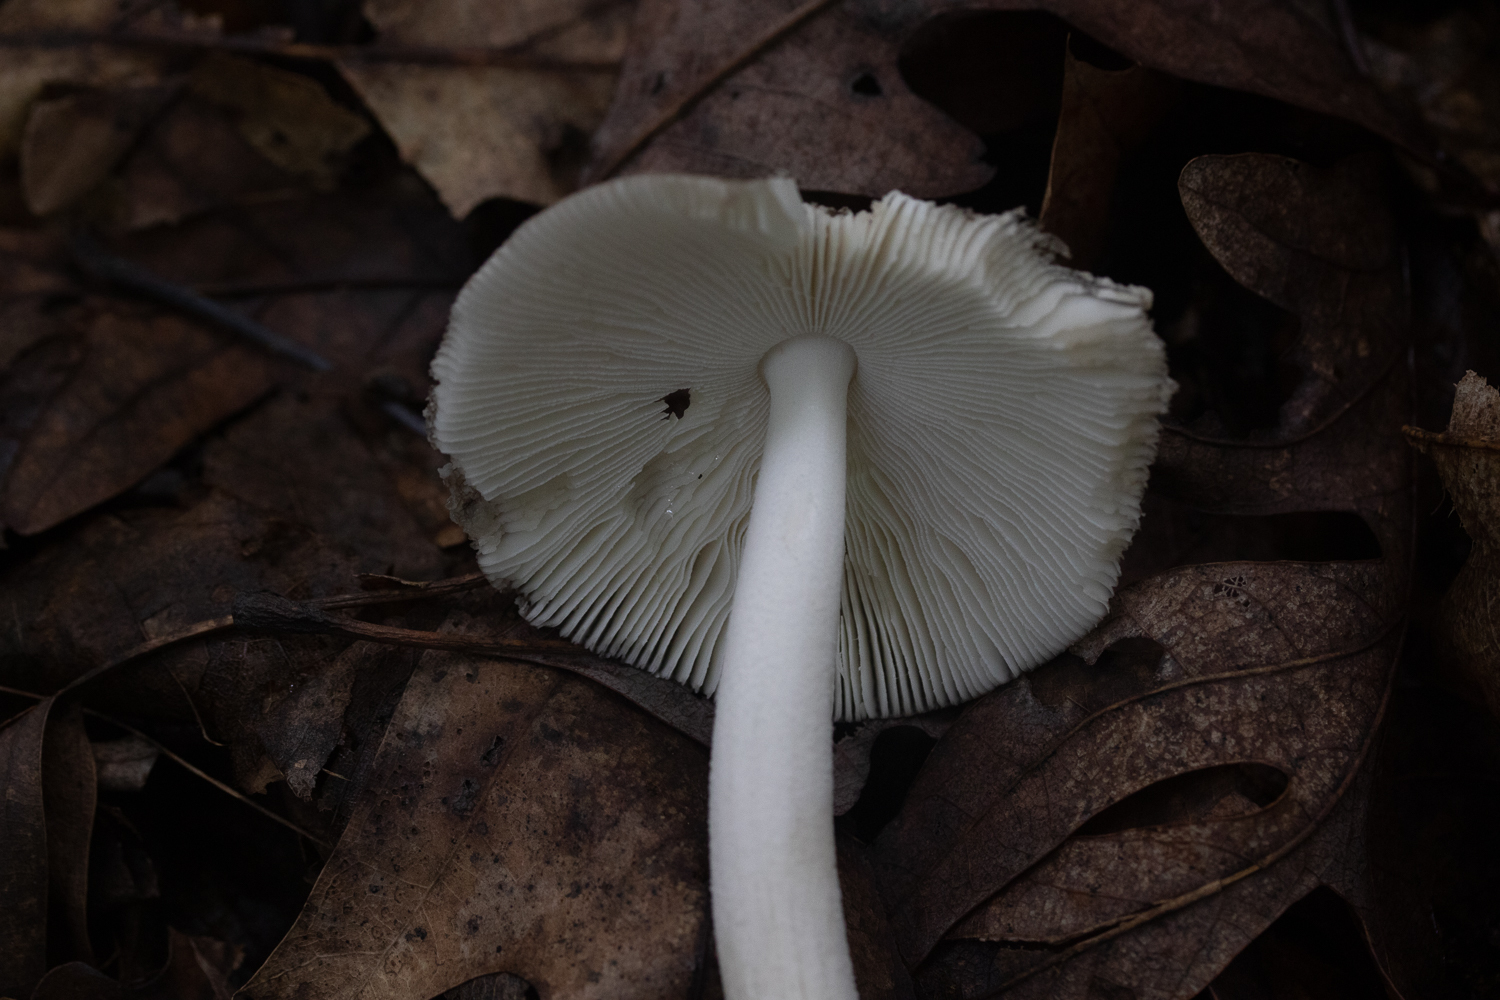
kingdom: Fungi
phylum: Basidiomycota
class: Agaricomycetes
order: Agaricales
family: Amanitaceae
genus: Amanita
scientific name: Amanita vaginata
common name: Grisette
